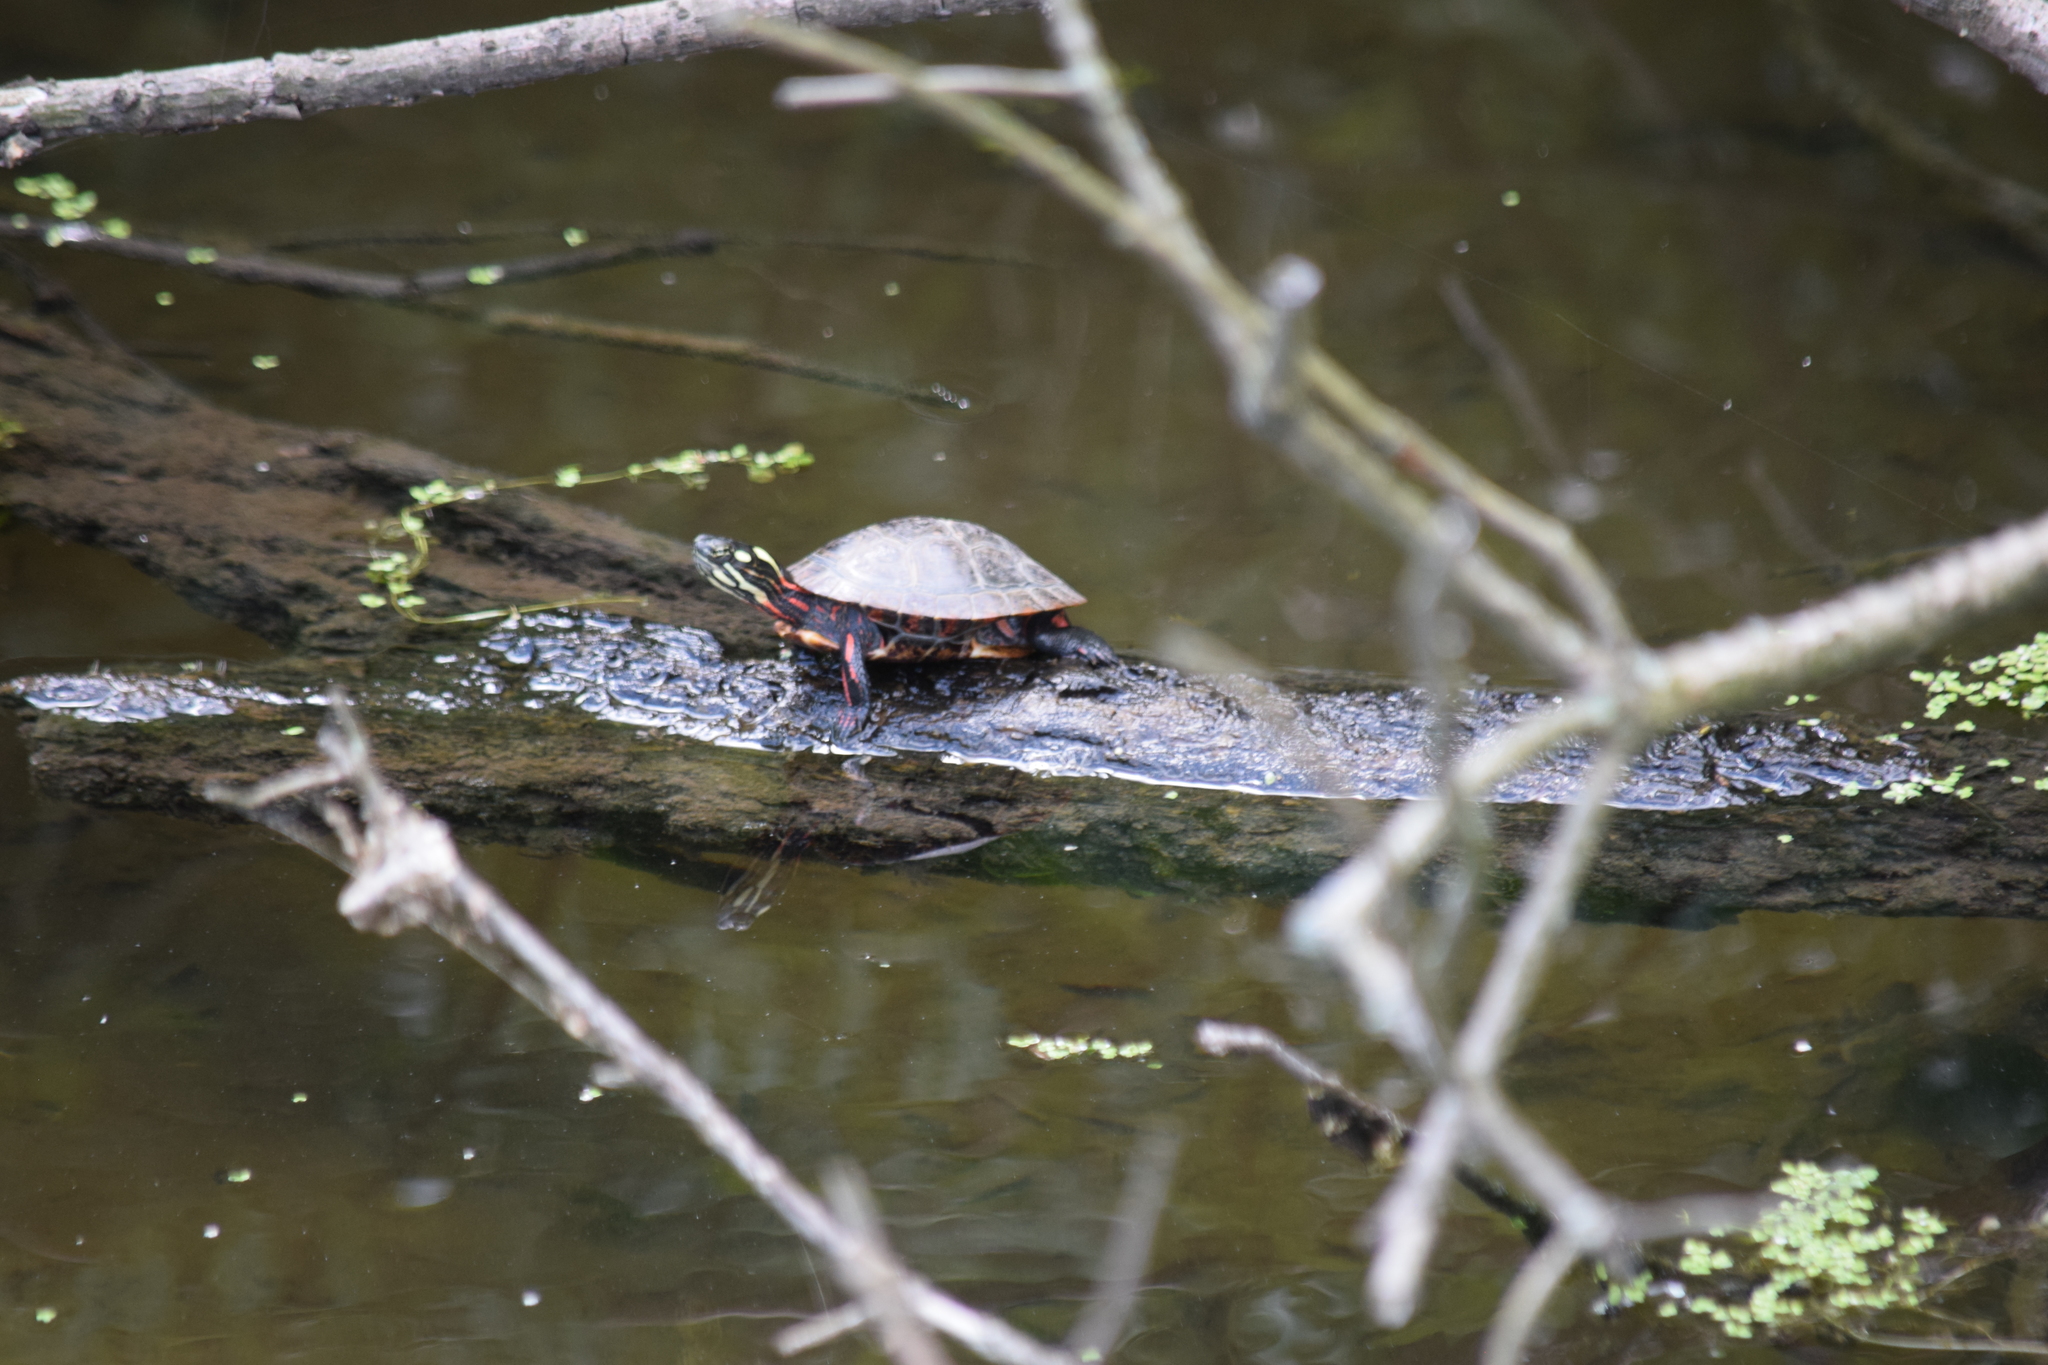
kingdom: Animalia
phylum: Chordata
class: Testudines
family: Emydidae
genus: Chrysemys
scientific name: Chrysemys picta
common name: Painted turtle
